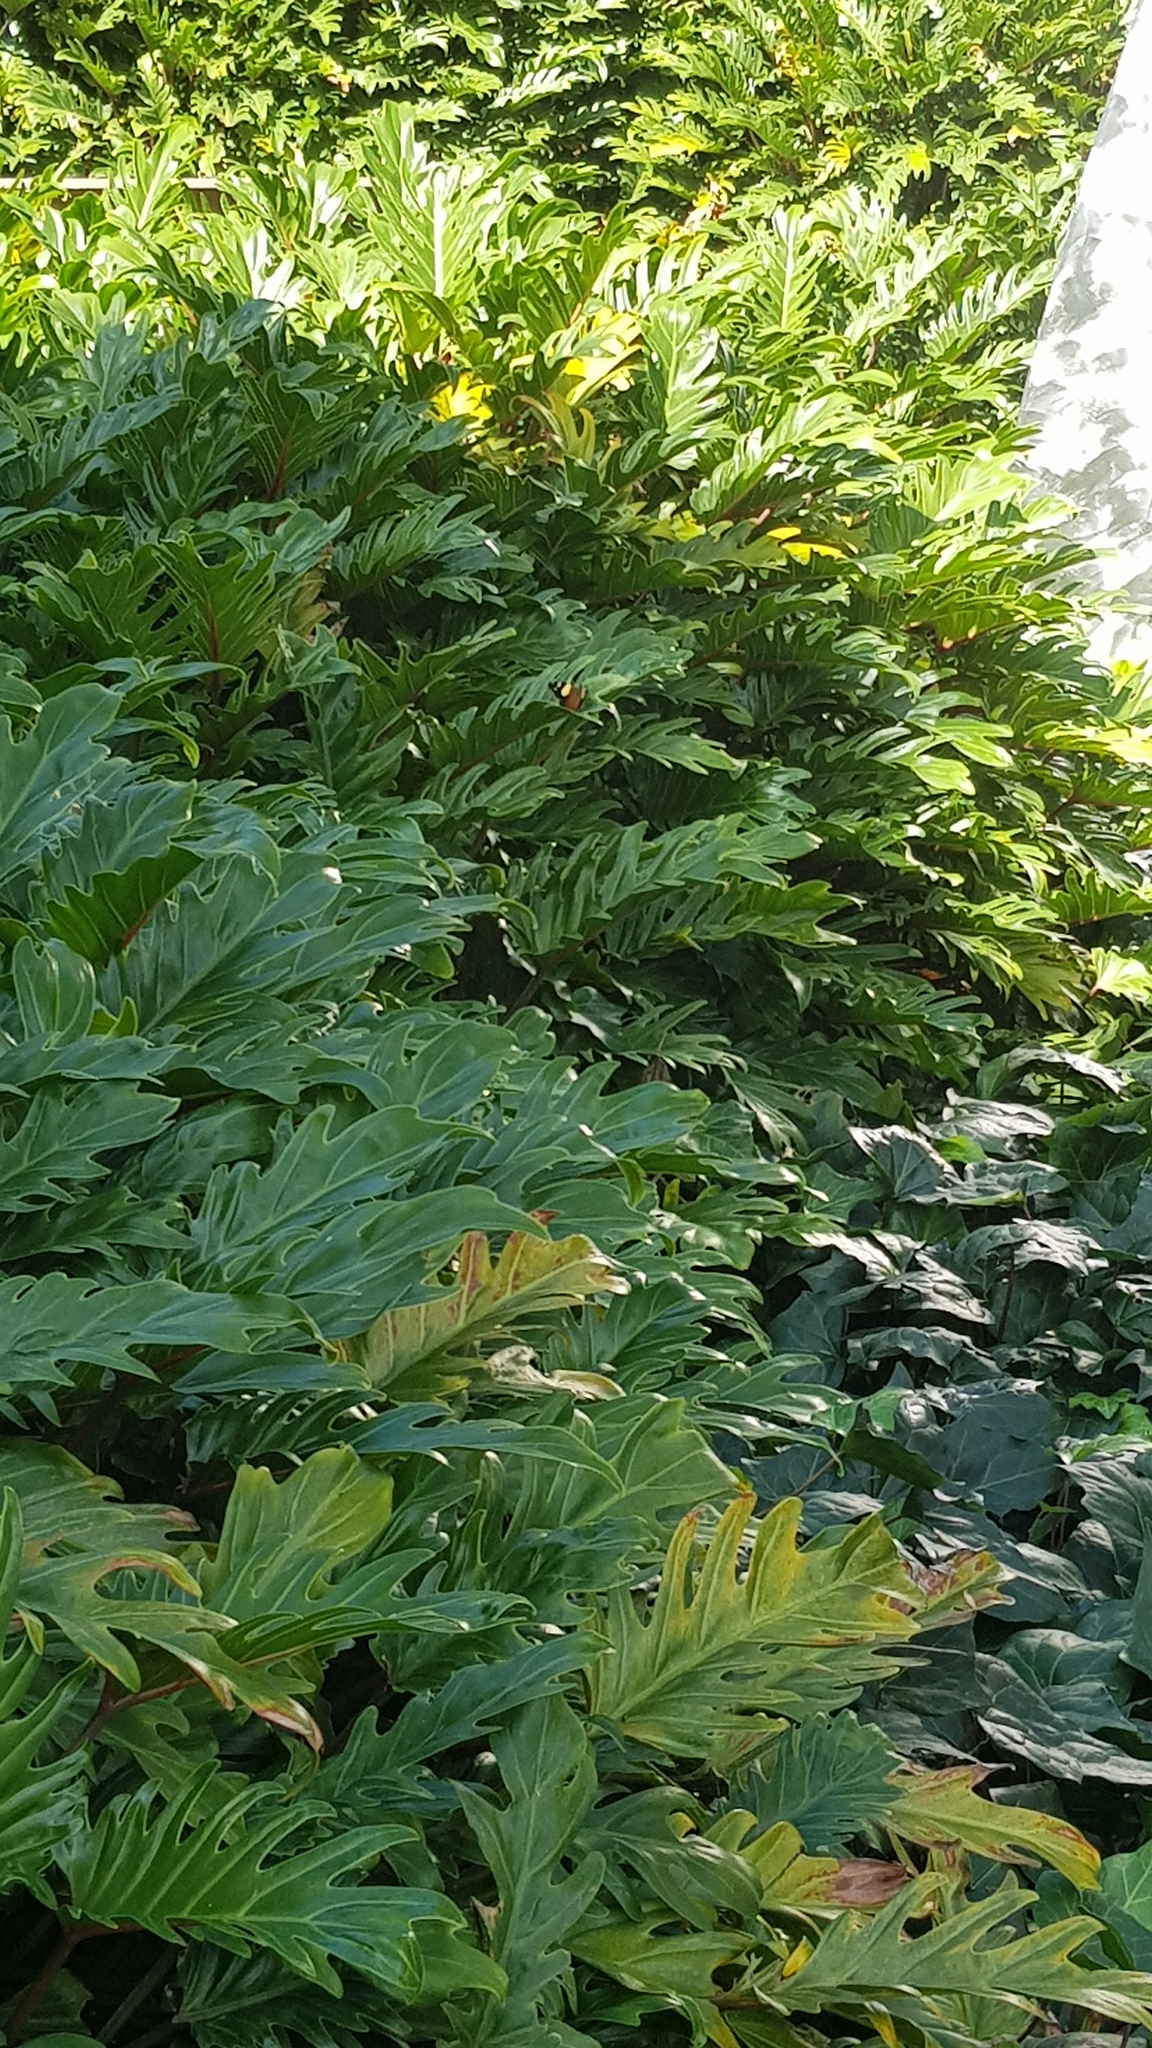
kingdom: Animalia
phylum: Arthropoda
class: Insecta
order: Lepidoptera
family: Nymphalidae
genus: Vanessa
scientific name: Vanessa itea
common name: Yellow admiral
